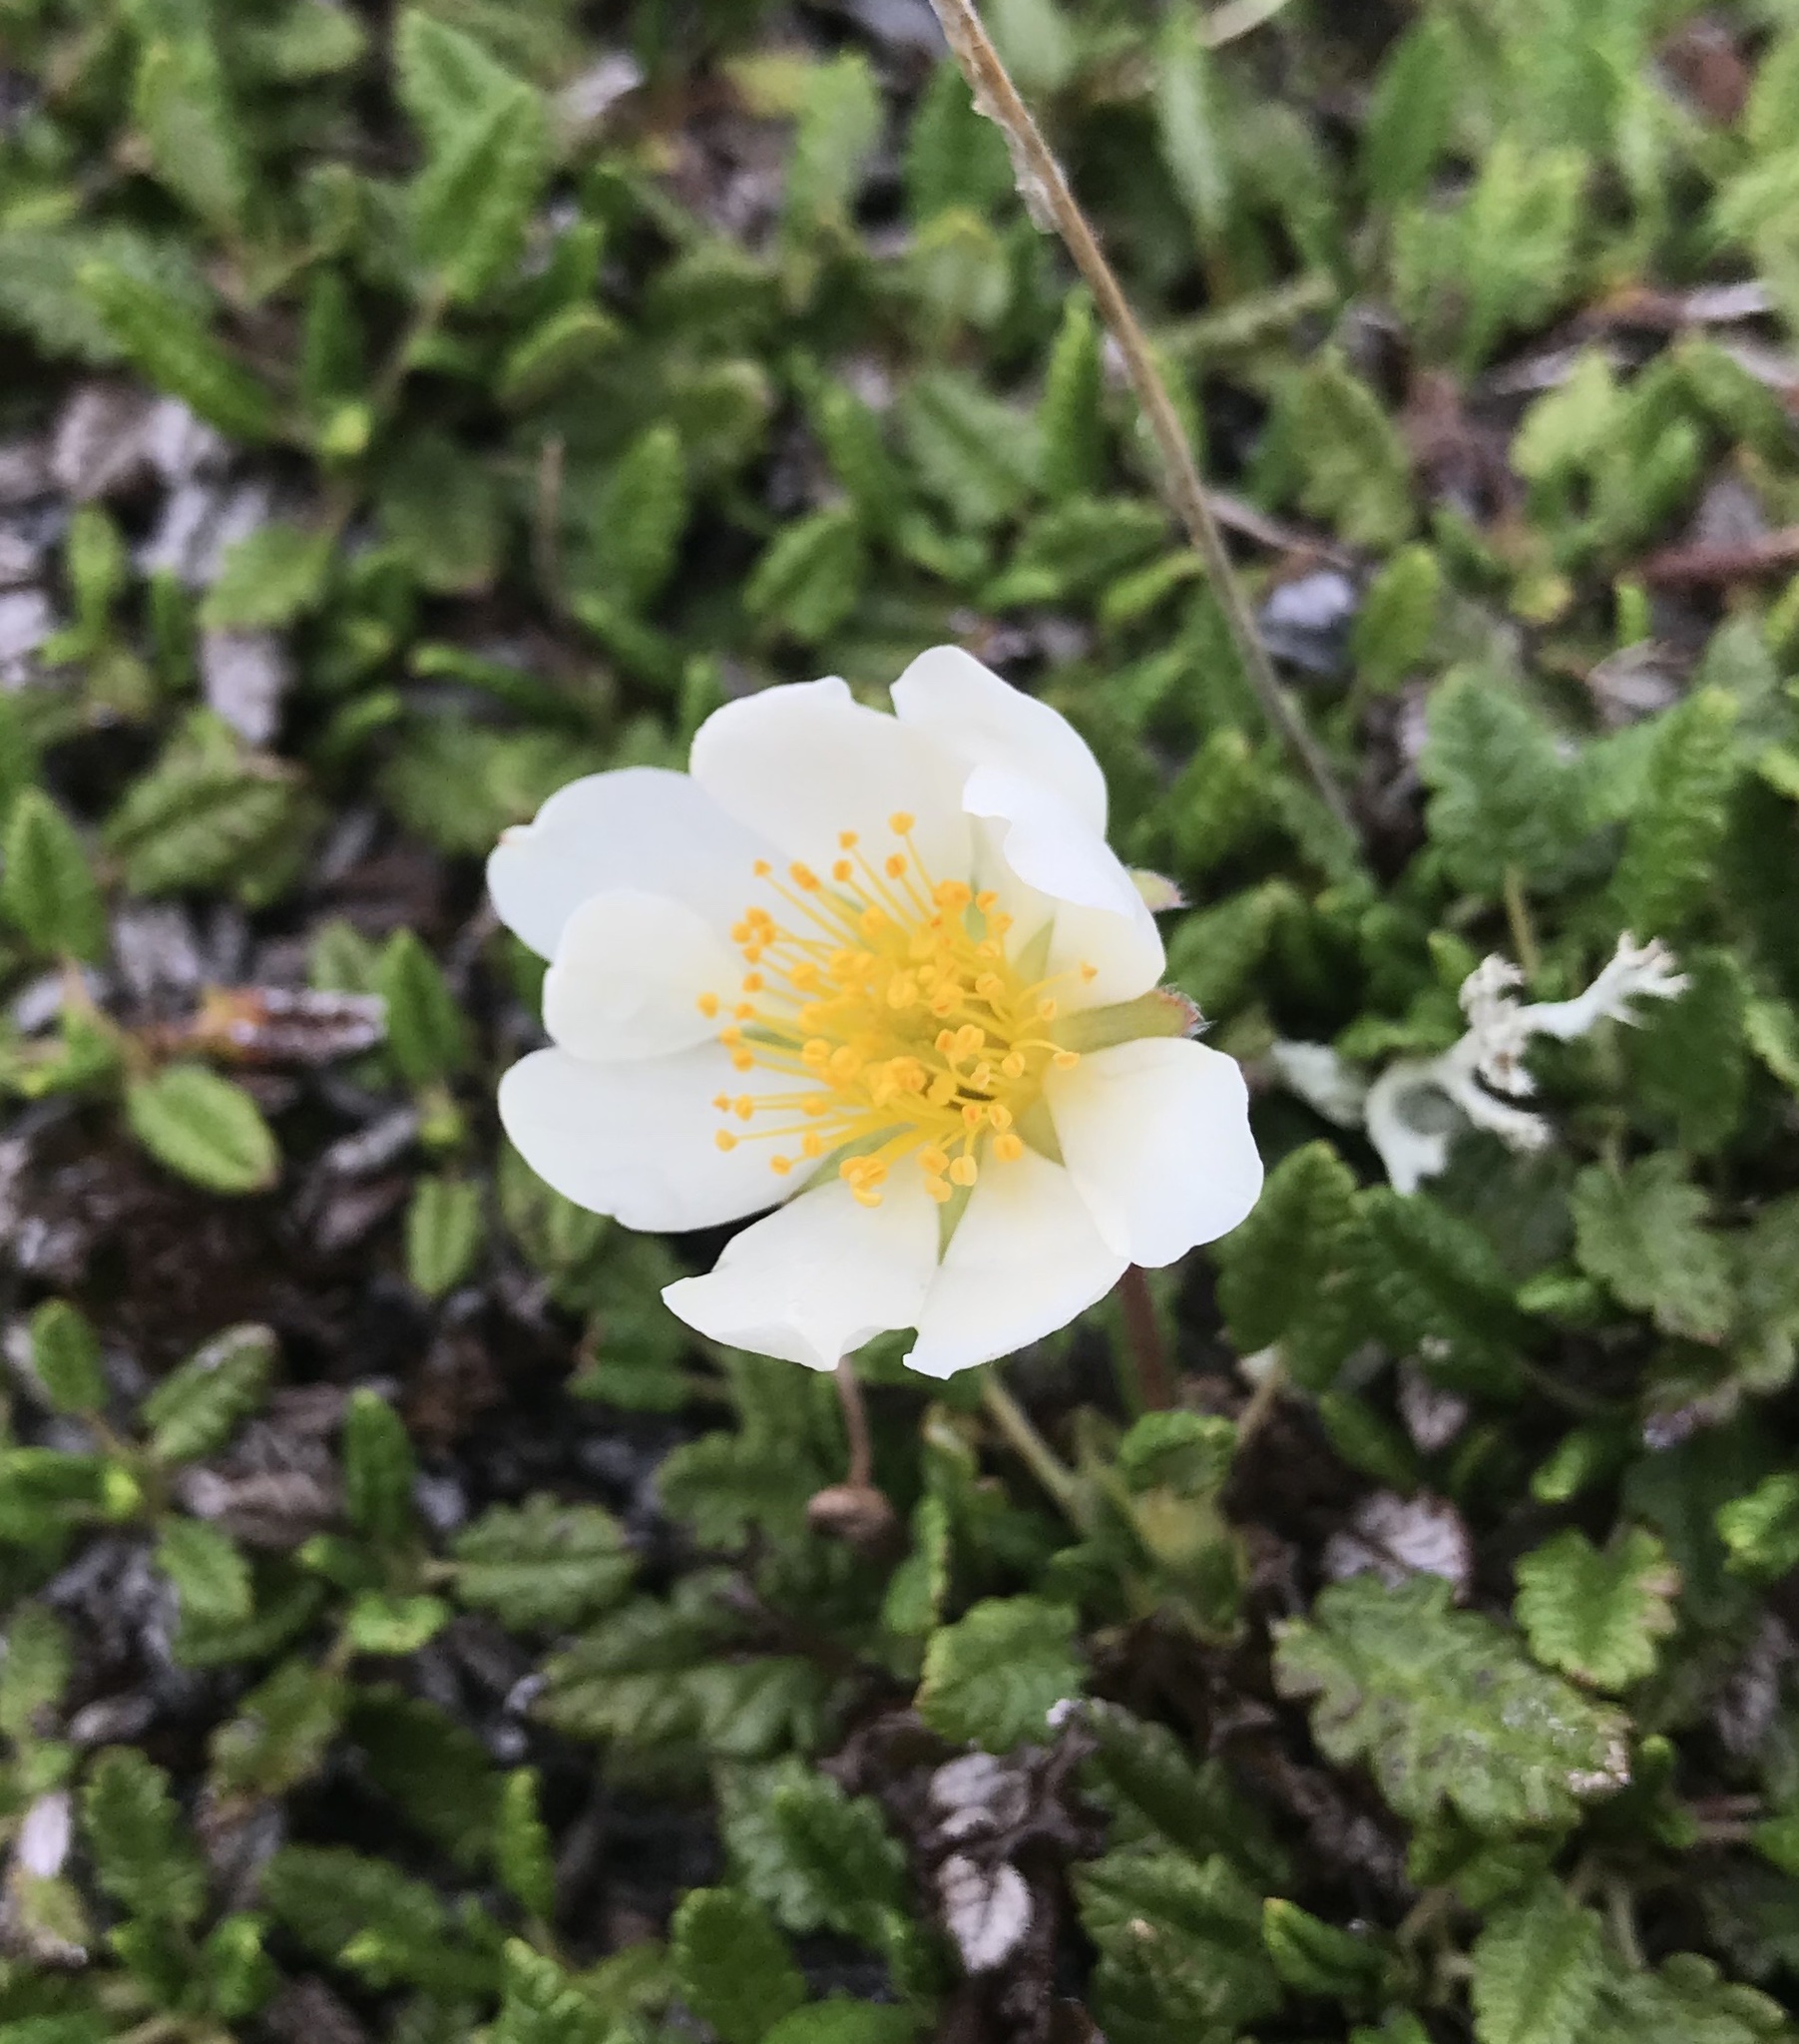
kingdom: Plantae
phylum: Tracheophyta
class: Magnoliopsida
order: Rosales
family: Rosaceae
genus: Dryas
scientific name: Dryas octopetala
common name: Eight-petal mountain-avens
